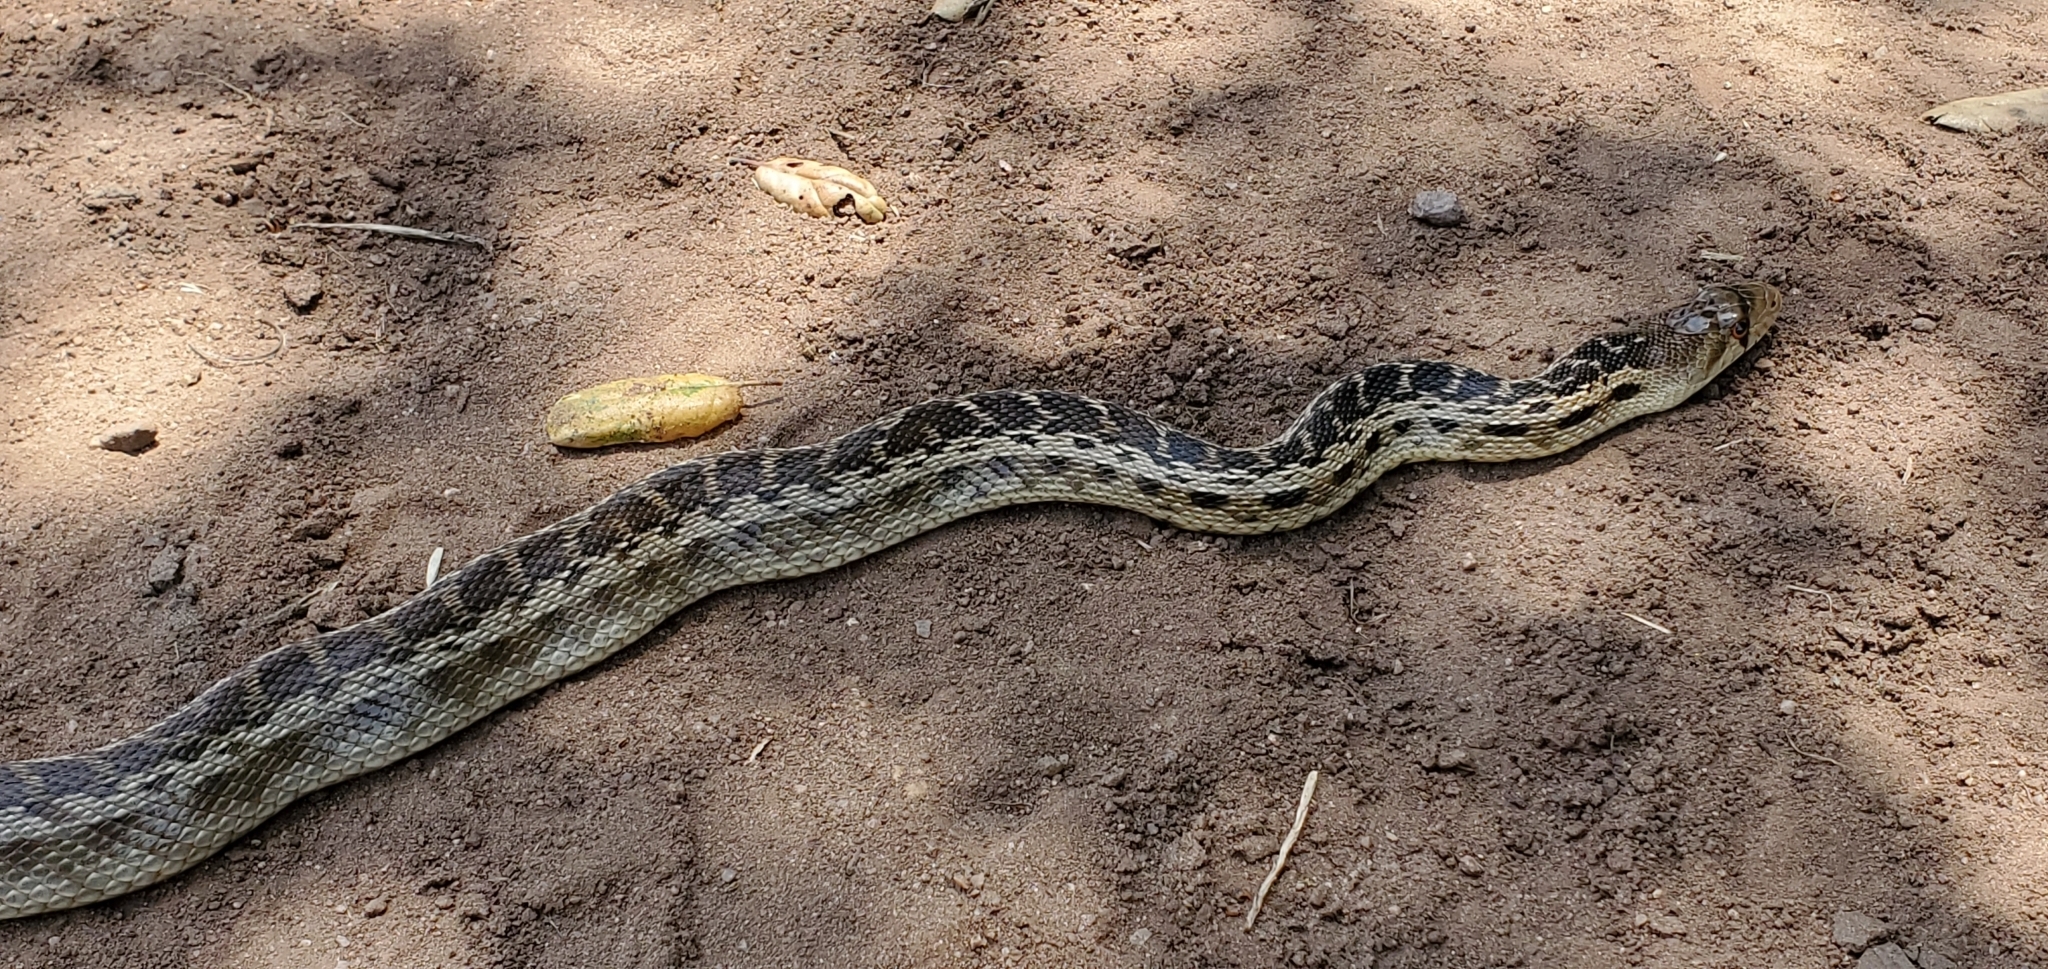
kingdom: Animalia
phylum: Chordata
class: Squamata
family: Colubridae
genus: Pituophis
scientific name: Pituophis catenifer
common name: Gopher snake
